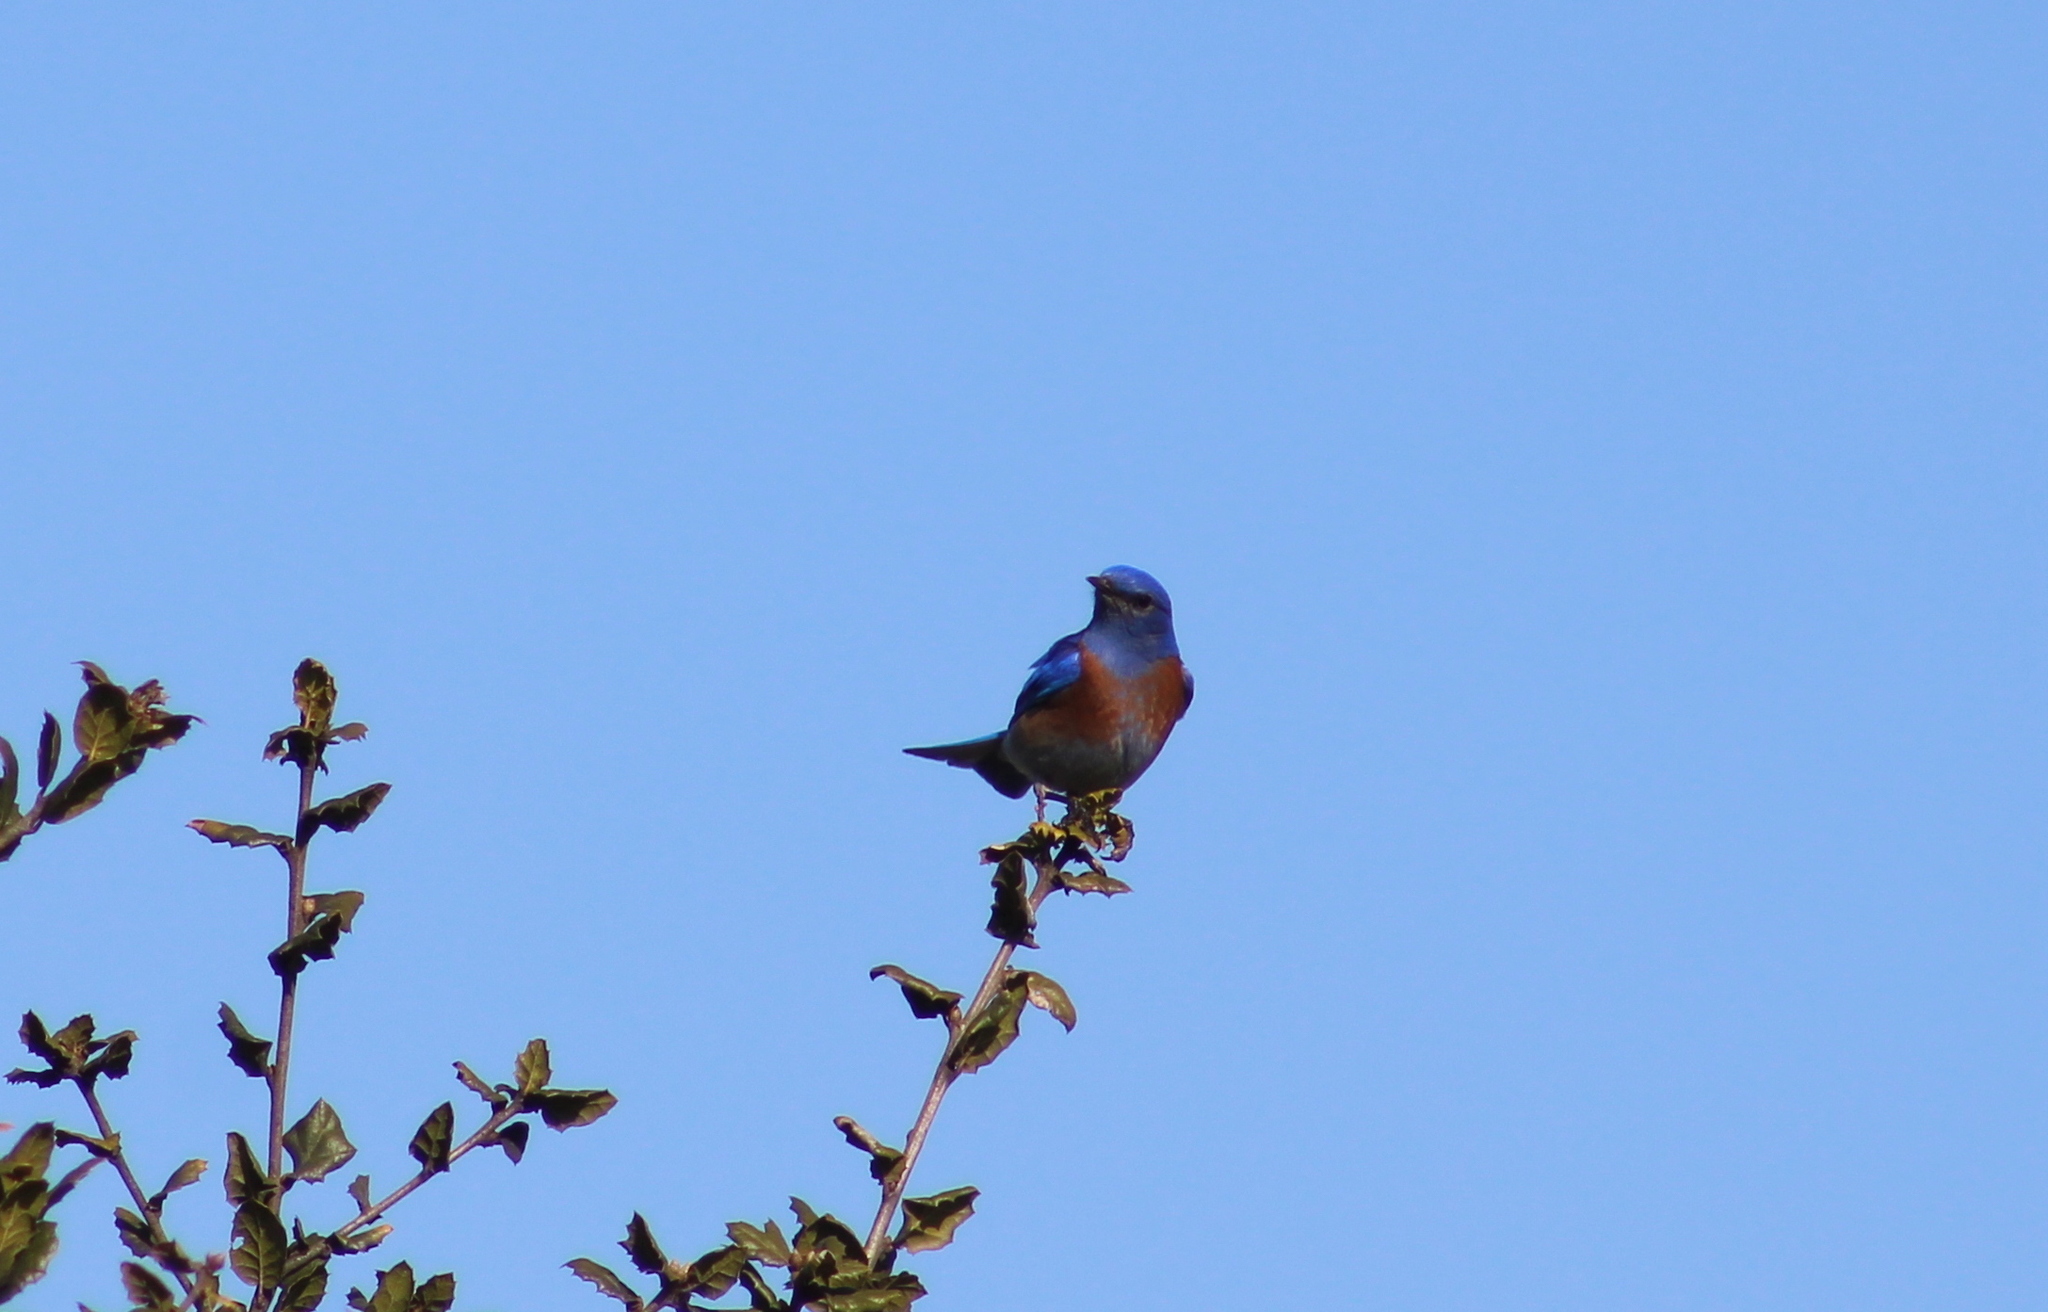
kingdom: Animalia
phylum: Chordata
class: Aves
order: Passeriformes
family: Turdidae
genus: Sialia
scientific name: Sialia mexicana
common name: Western bluebird
